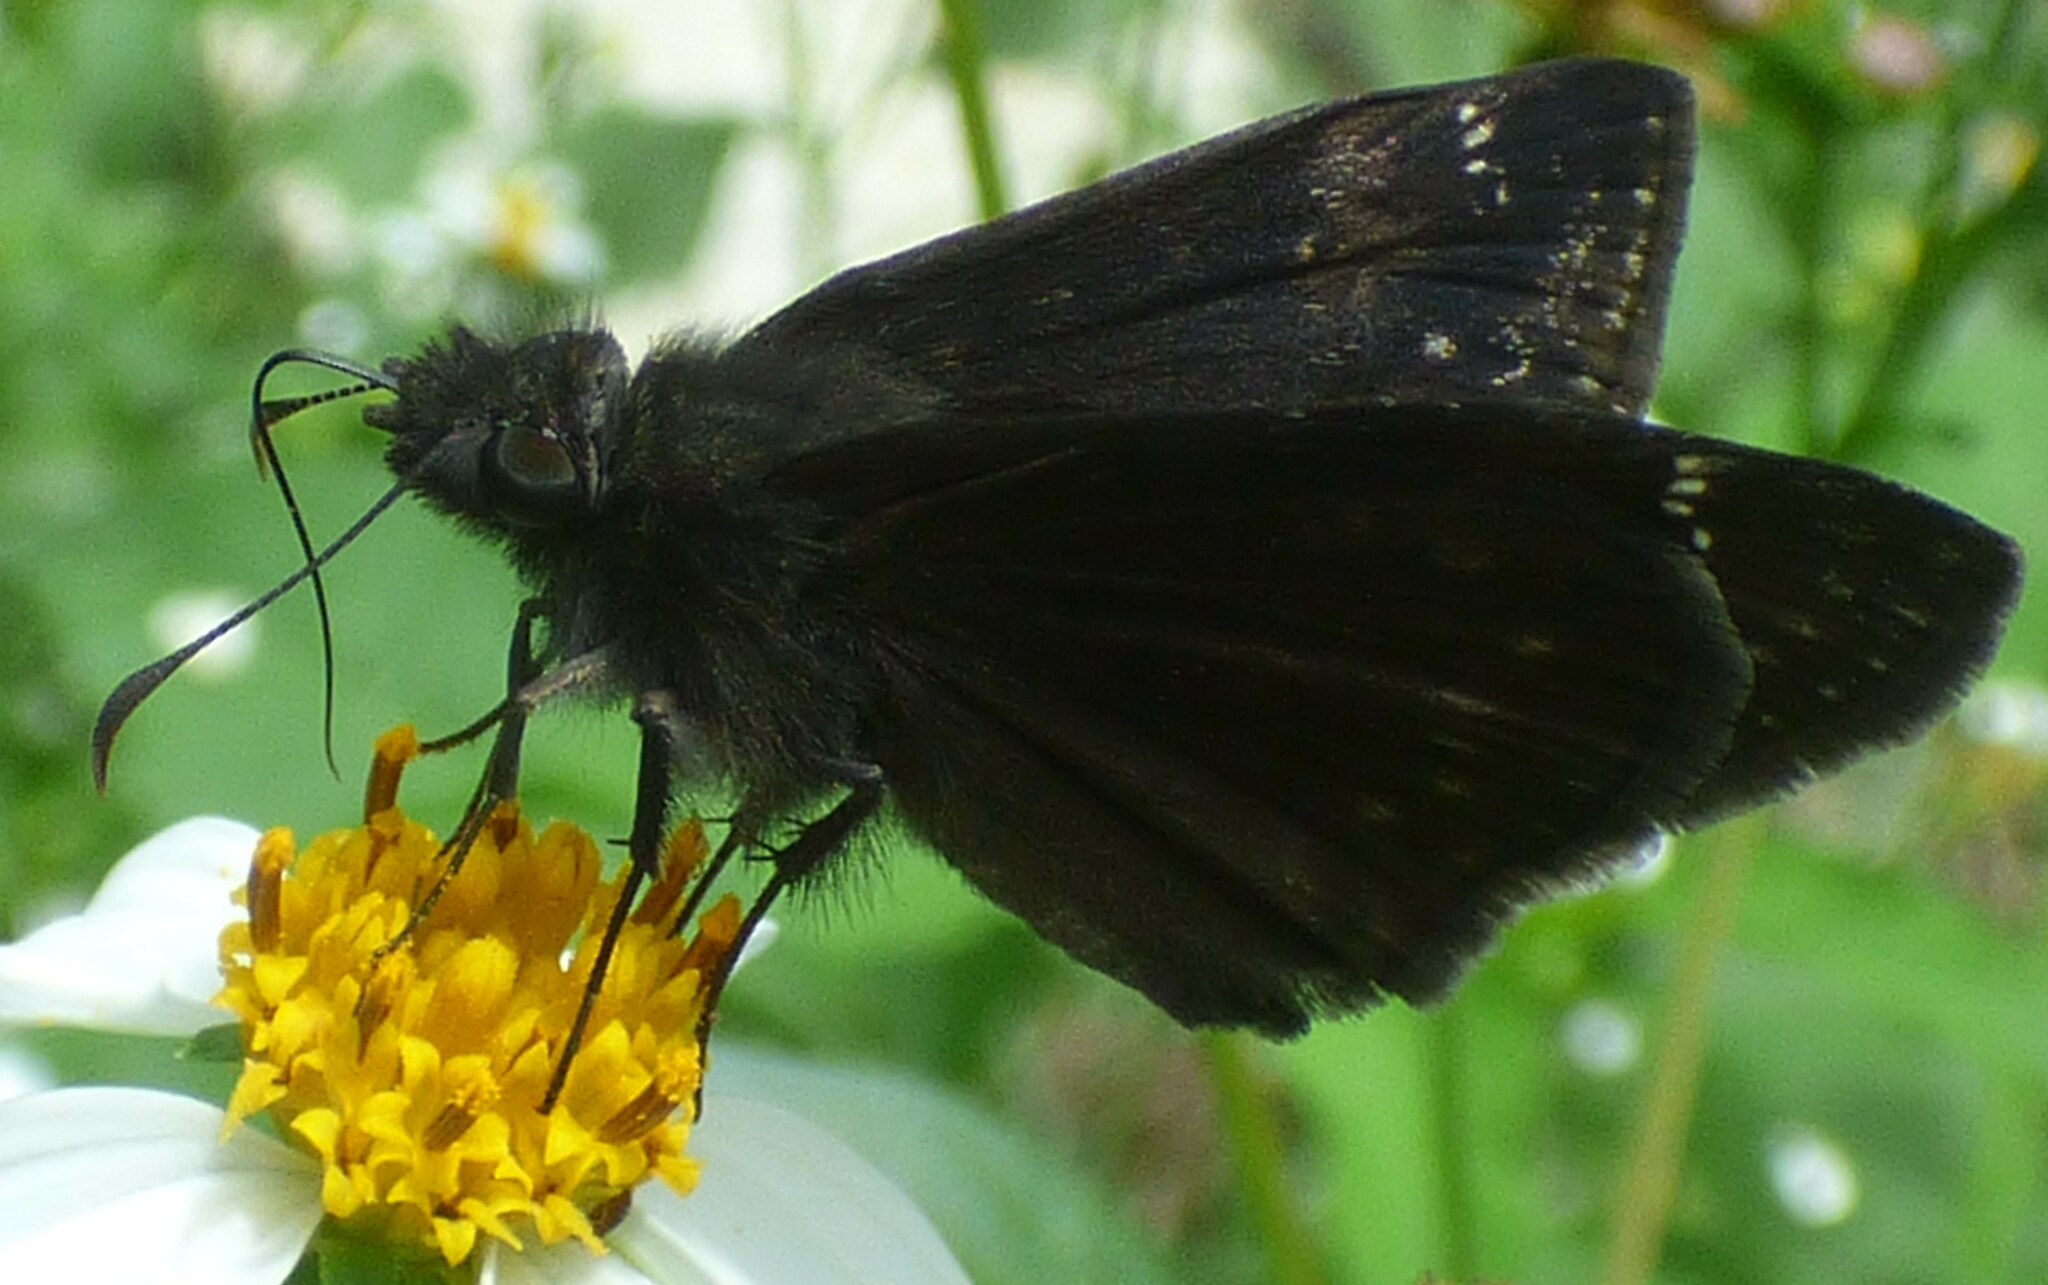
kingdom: Animalia
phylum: Arthropoda
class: Insecta
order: Lepidoptera
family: Hesperiidae
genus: Erynnis
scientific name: Erynnis zarucco
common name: Zarucco duskywing
